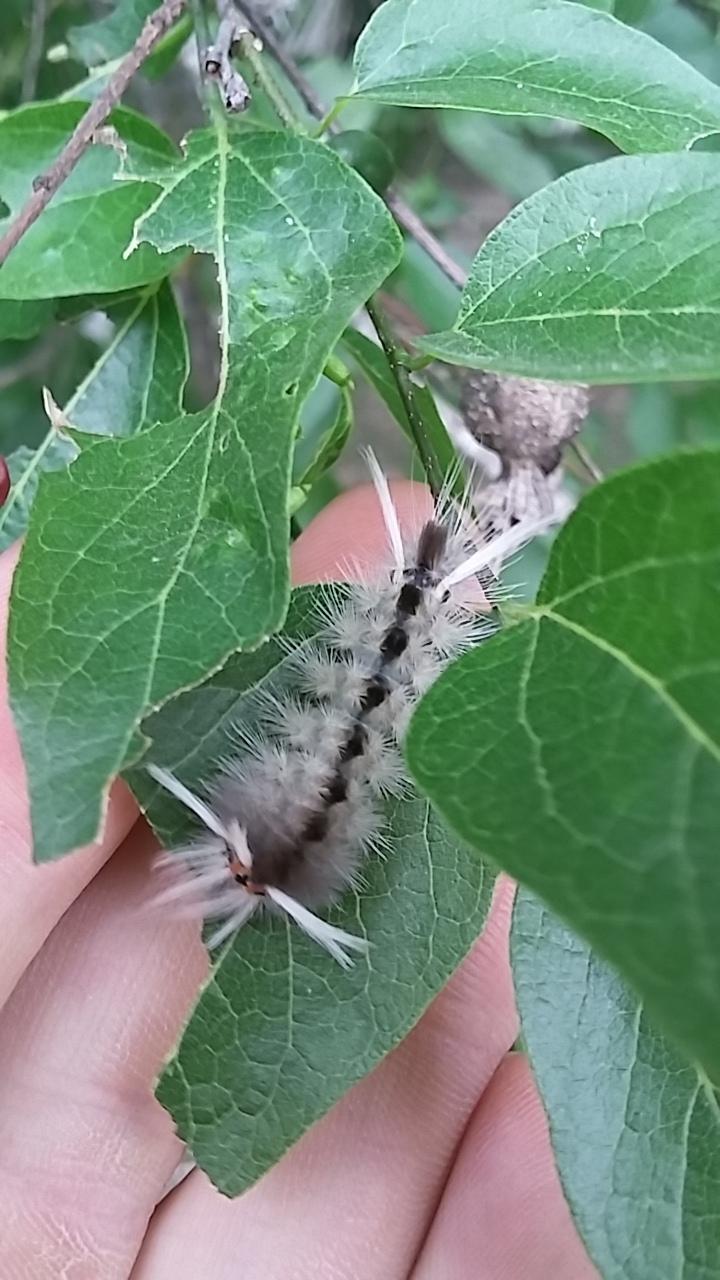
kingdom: Animalia
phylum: Arthropoda
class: Insecta
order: Lepidoptera
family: Erebidae
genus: Halysidota
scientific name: Halysidota schausi
